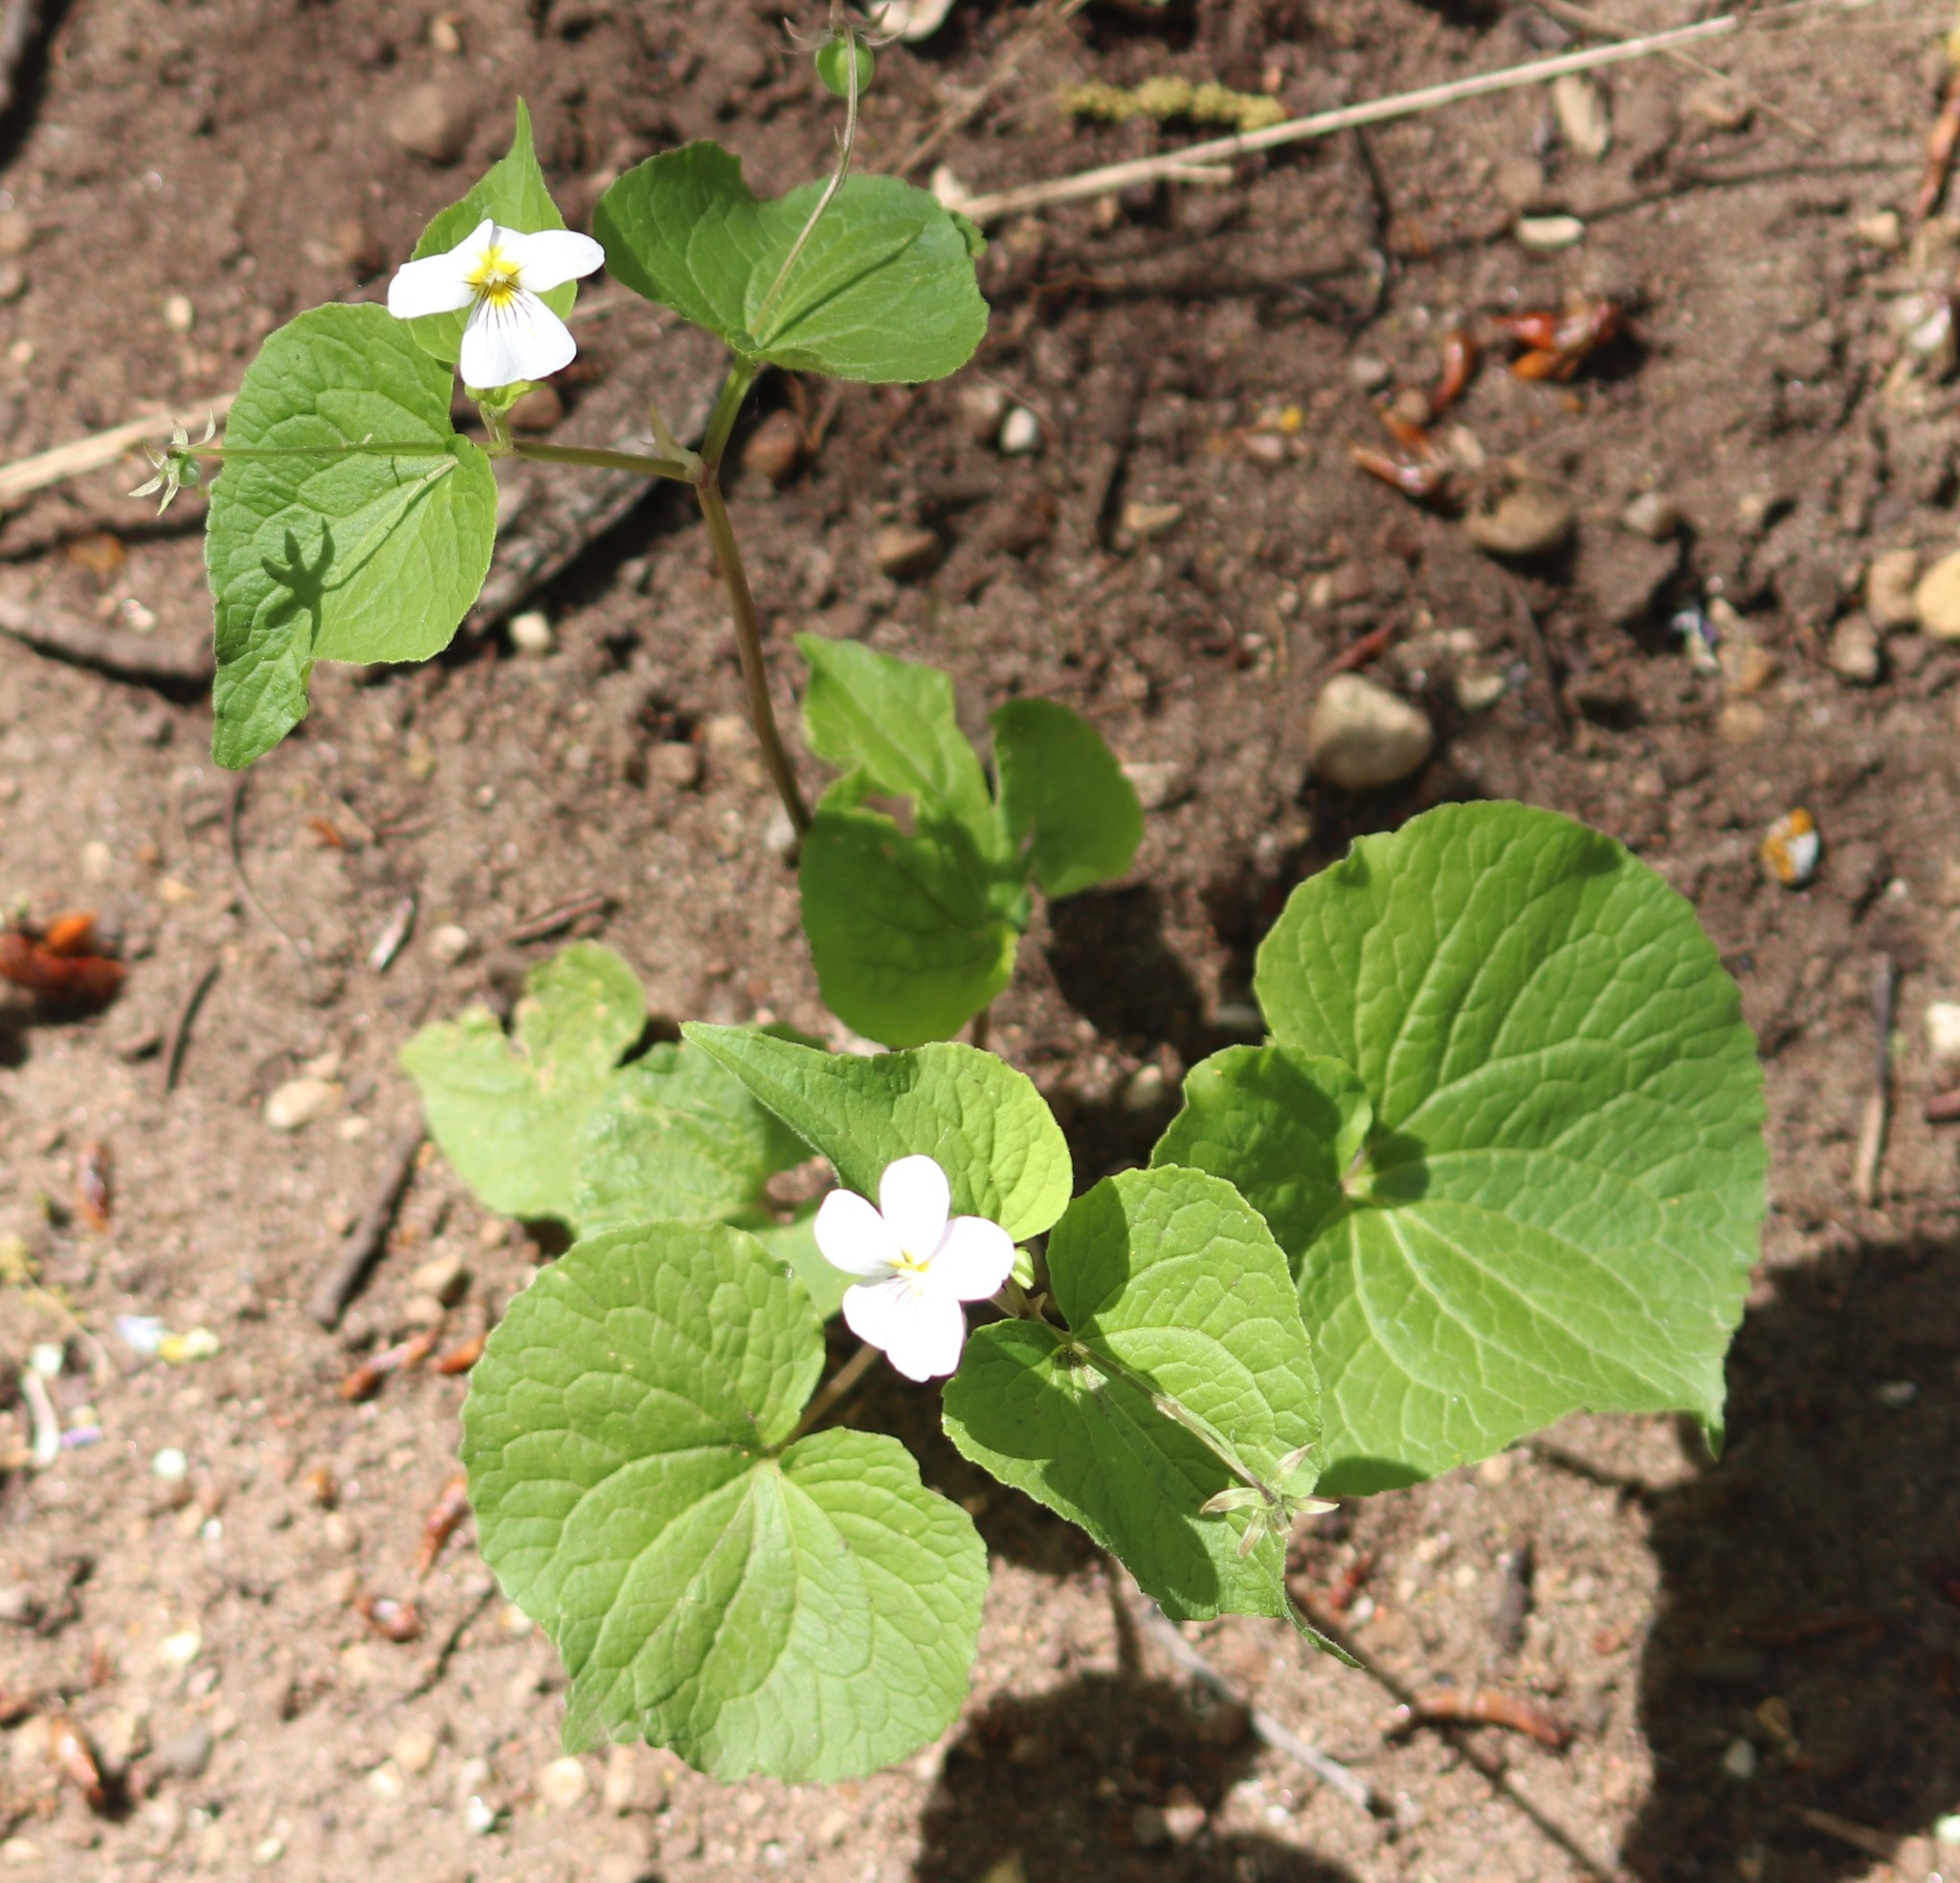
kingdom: Plantae
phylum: Tracheophyta
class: Magnoliopsida
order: Malpighiales
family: Violaceae
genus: Viola
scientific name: Viola canadensis
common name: Canada violet
